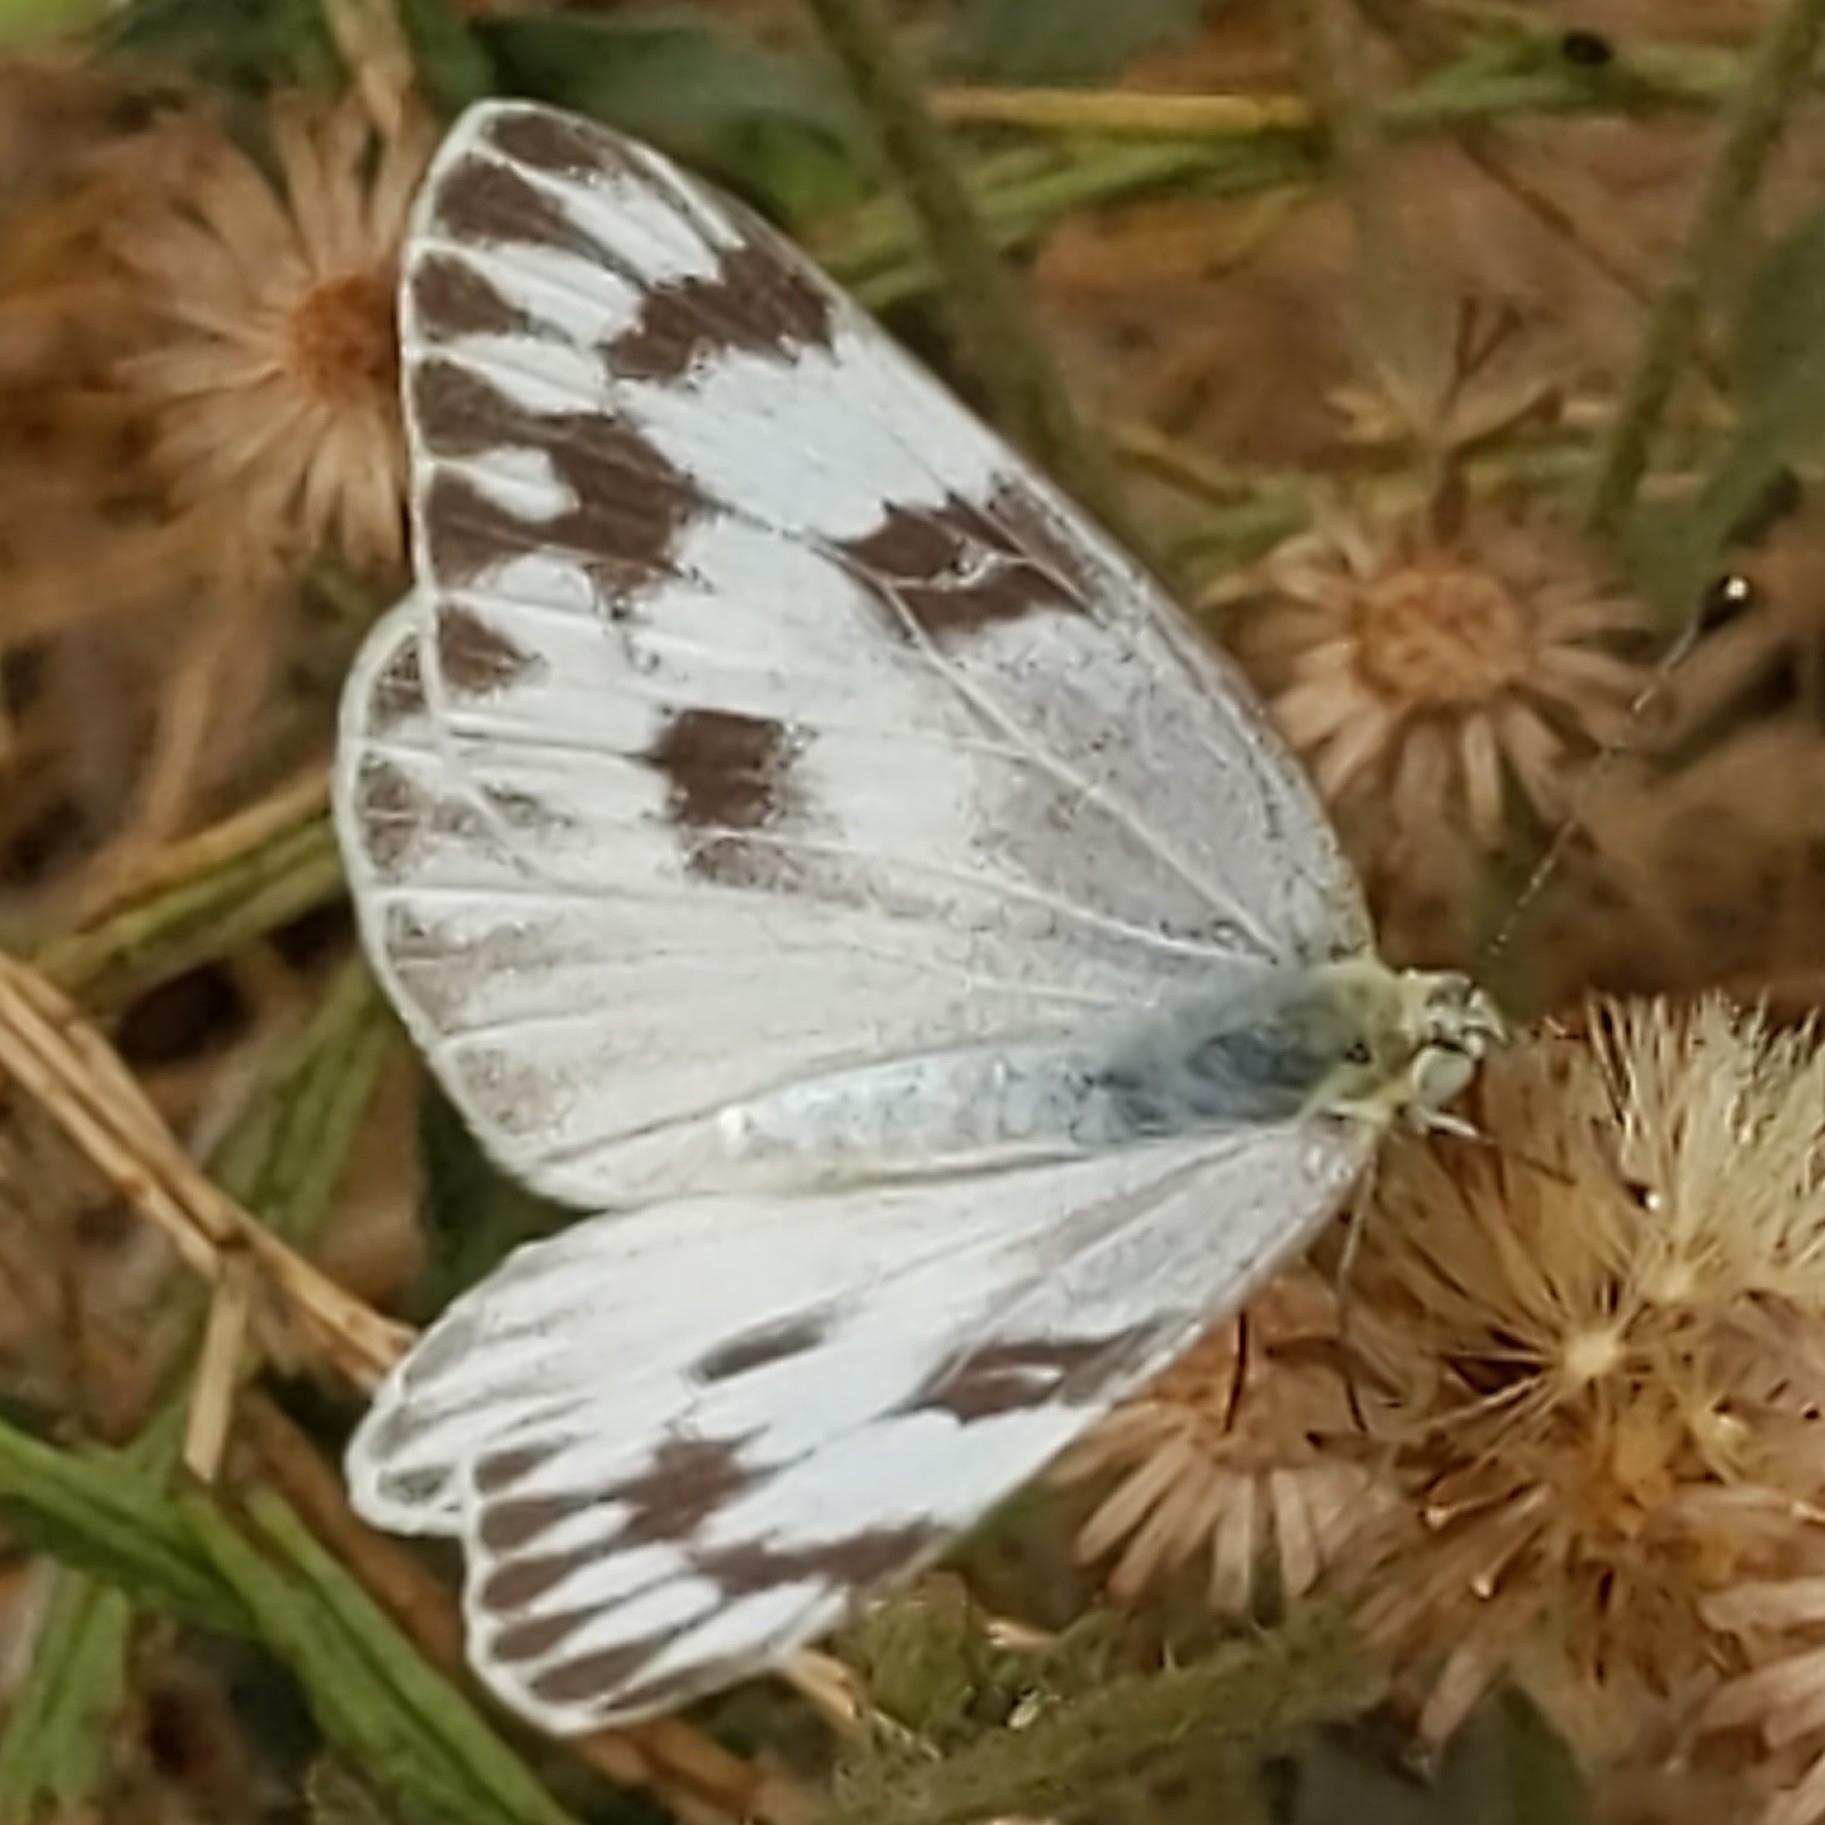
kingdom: Animalia
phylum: Arthropoda
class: Insecta
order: Lepidoptera
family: Pieridae
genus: Pontia
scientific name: Pontia protodice
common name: Checkered white
